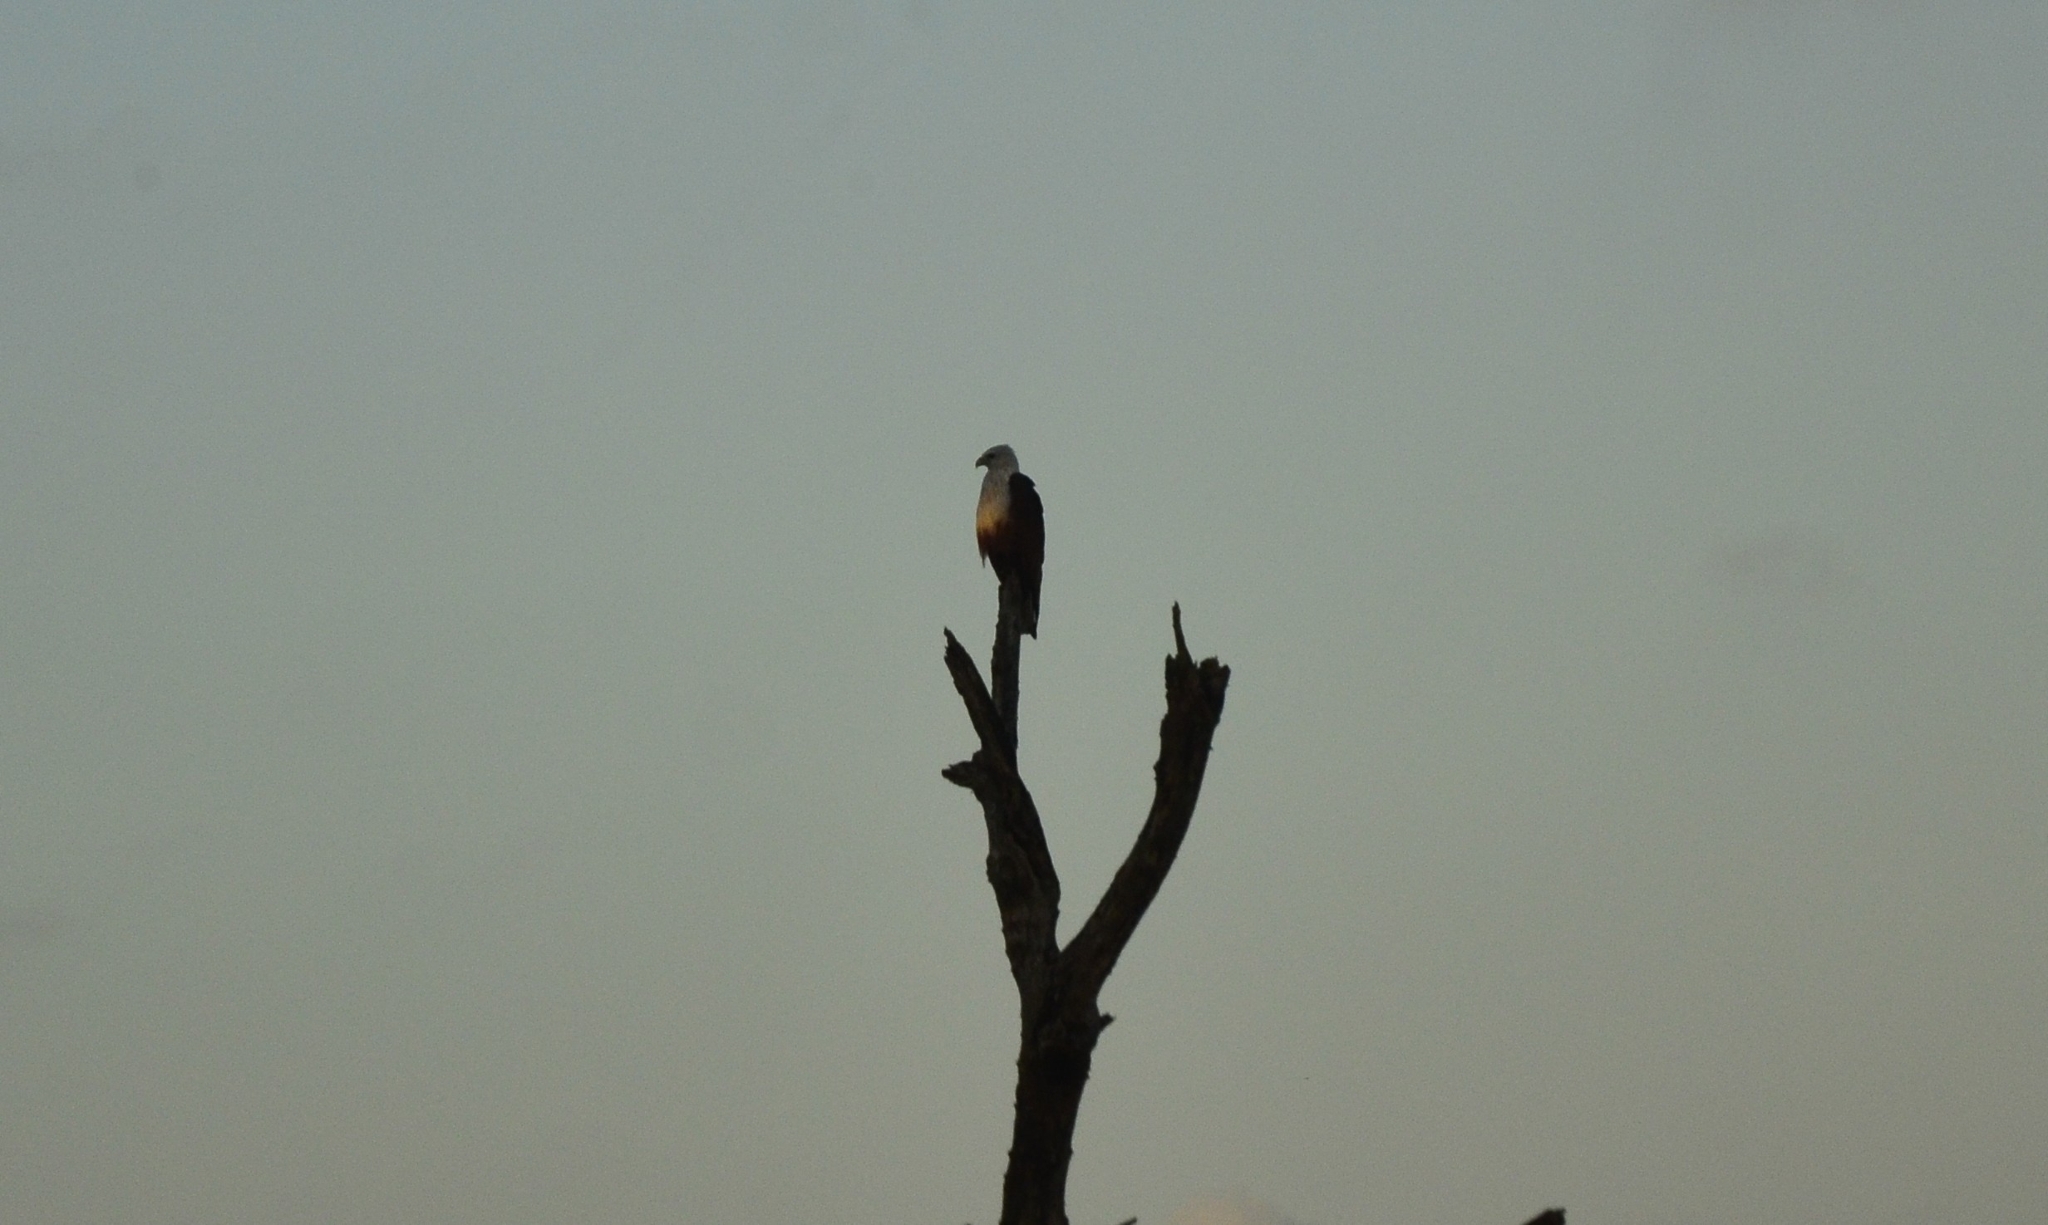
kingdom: Animalia
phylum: Chordata
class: Aves
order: Accipitriformes
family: Accipitridae
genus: Haliastur
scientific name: Haliastur indus
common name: Brahminy kite
